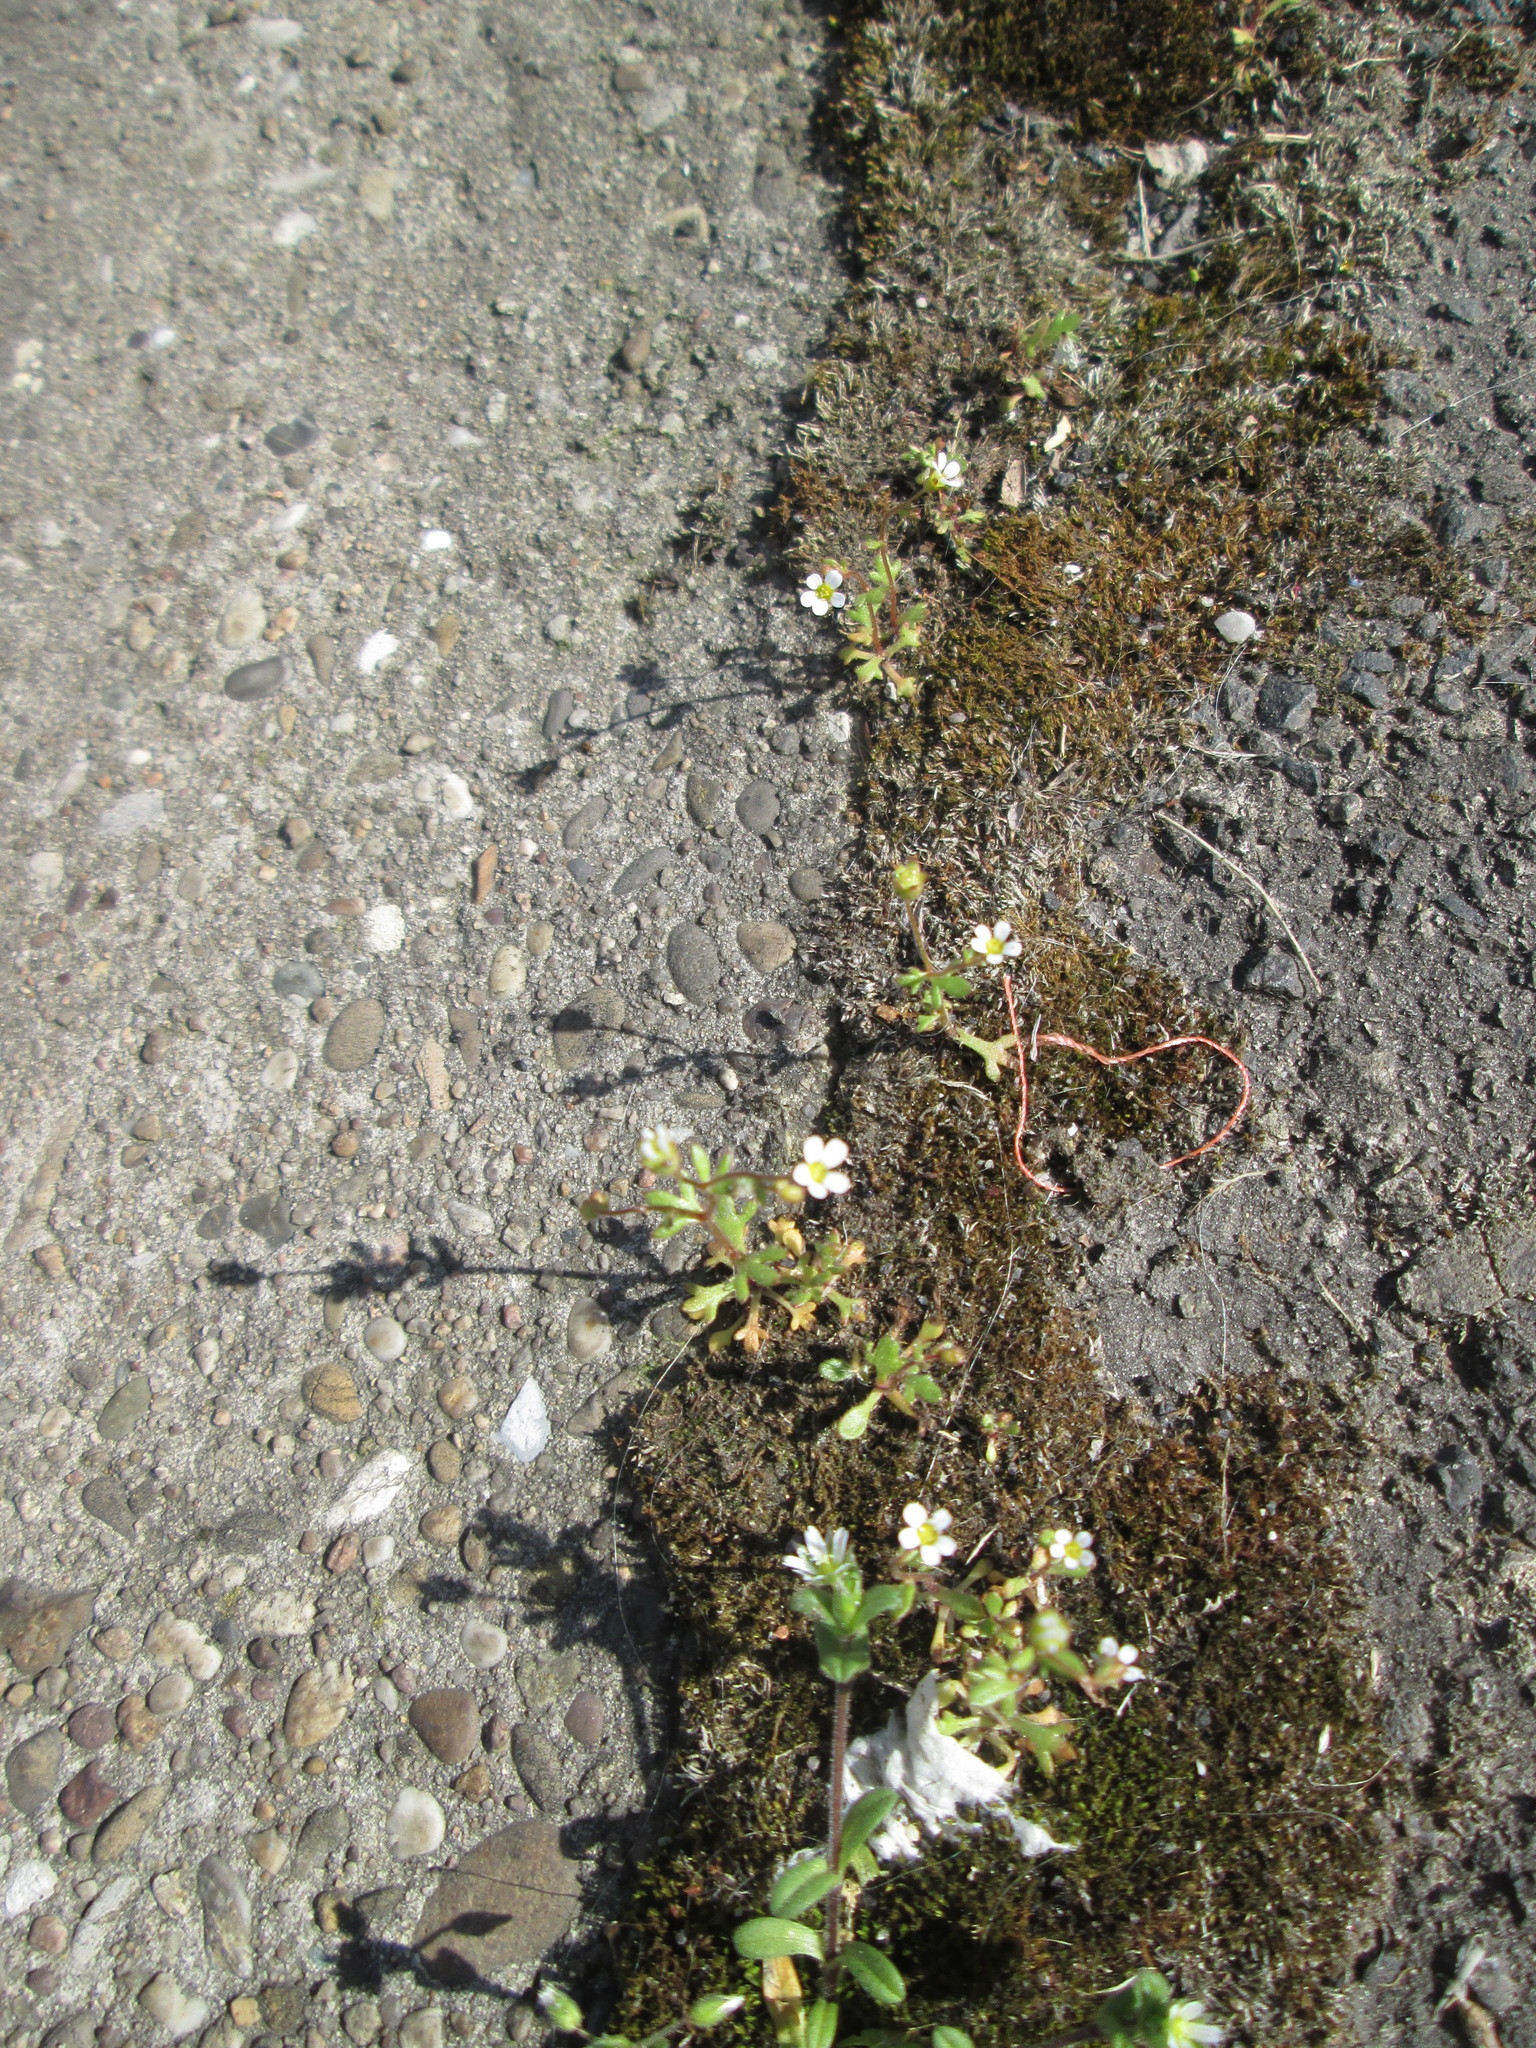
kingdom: Plantae
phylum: Tracheophyta
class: Magnoliopsida
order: Saxifragales
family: Saxifragaceae
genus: Saxifraga
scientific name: Saxifraga tridactylites
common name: Rue-leaved saxifrage
